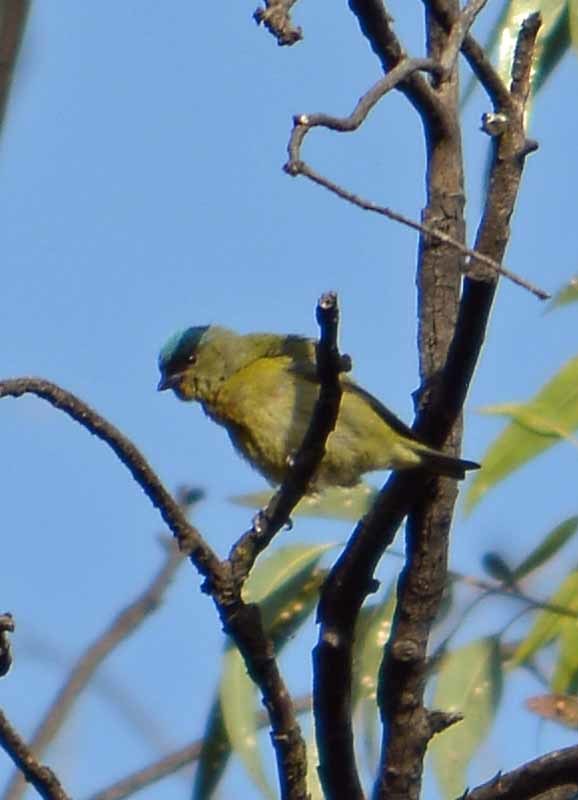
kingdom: Animalia
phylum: Chordata
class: Aves
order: Passeriformes
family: Fringillidae
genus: Euphonia
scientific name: Euphonia elegantissima
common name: Elegant euphonia
